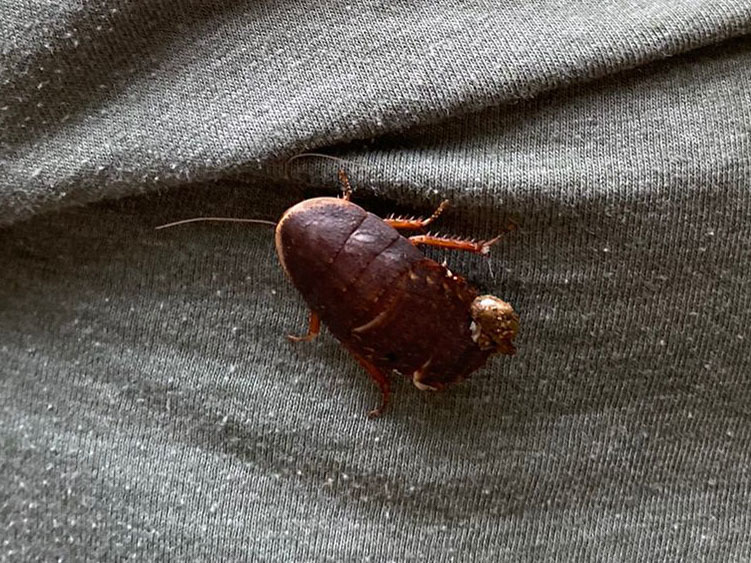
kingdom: Animalia
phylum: Arthropoda
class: Insecta
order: Blattodea
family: Blaberidae
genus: Opisthoplatia
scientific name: Opisthoplatia orientalis
